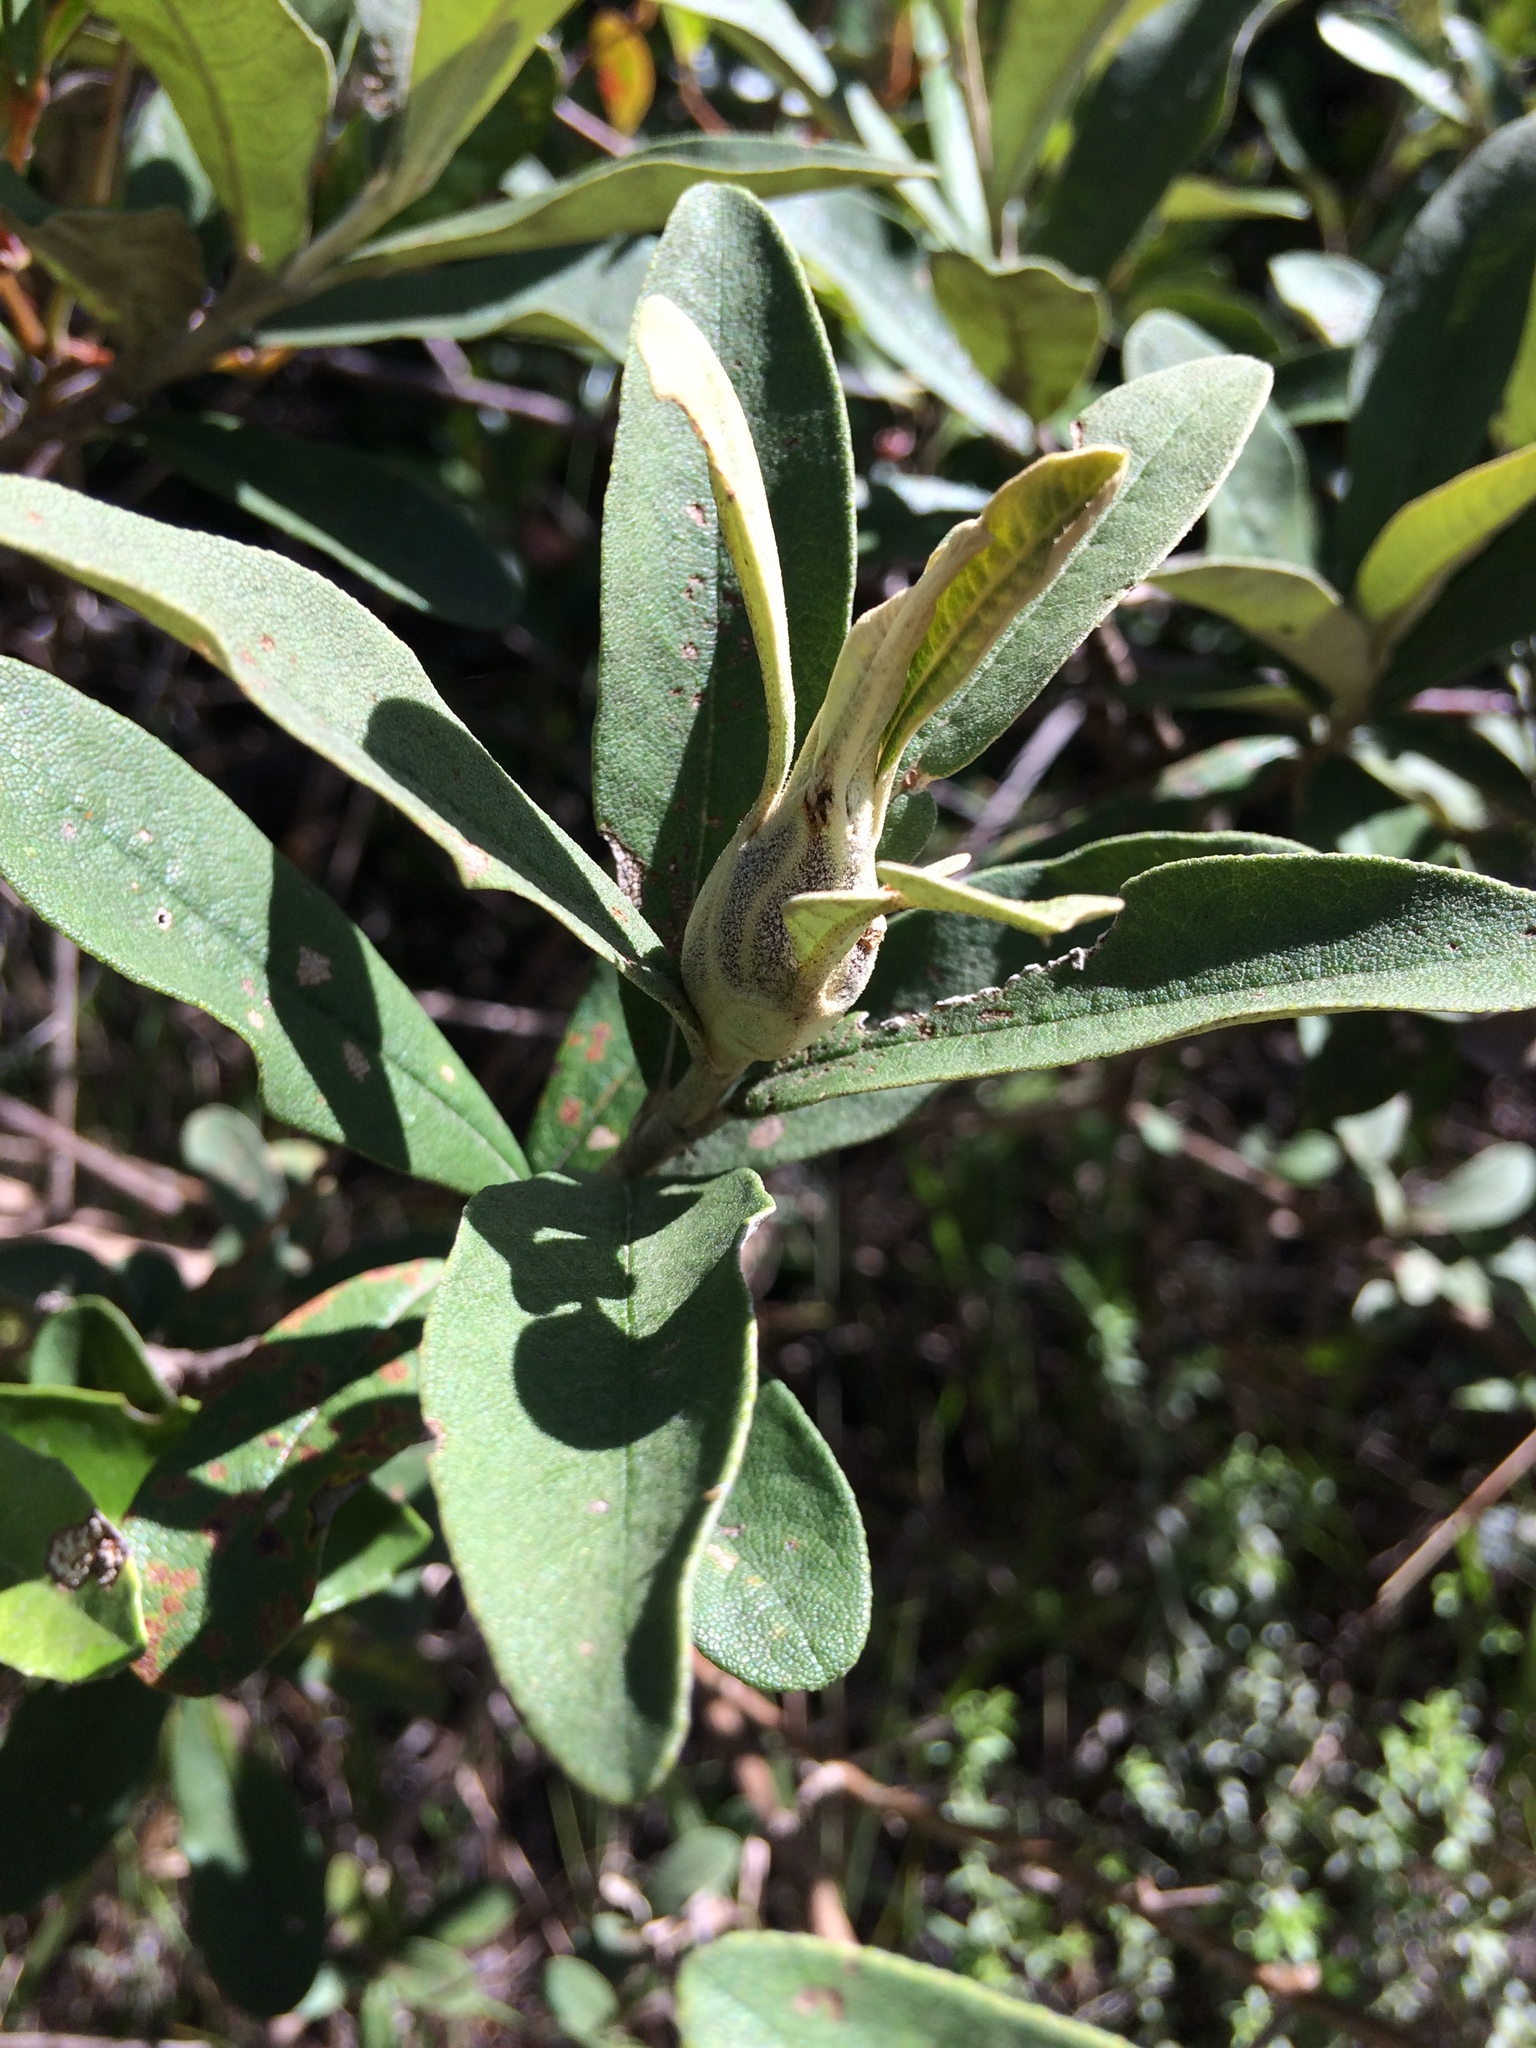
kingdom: Plantae
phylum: Tracheophyta
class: Magnoliopsida
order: Asterales
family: Asteraceae
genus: Tarchonanthus
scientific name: Tarchonanthus littoralis
